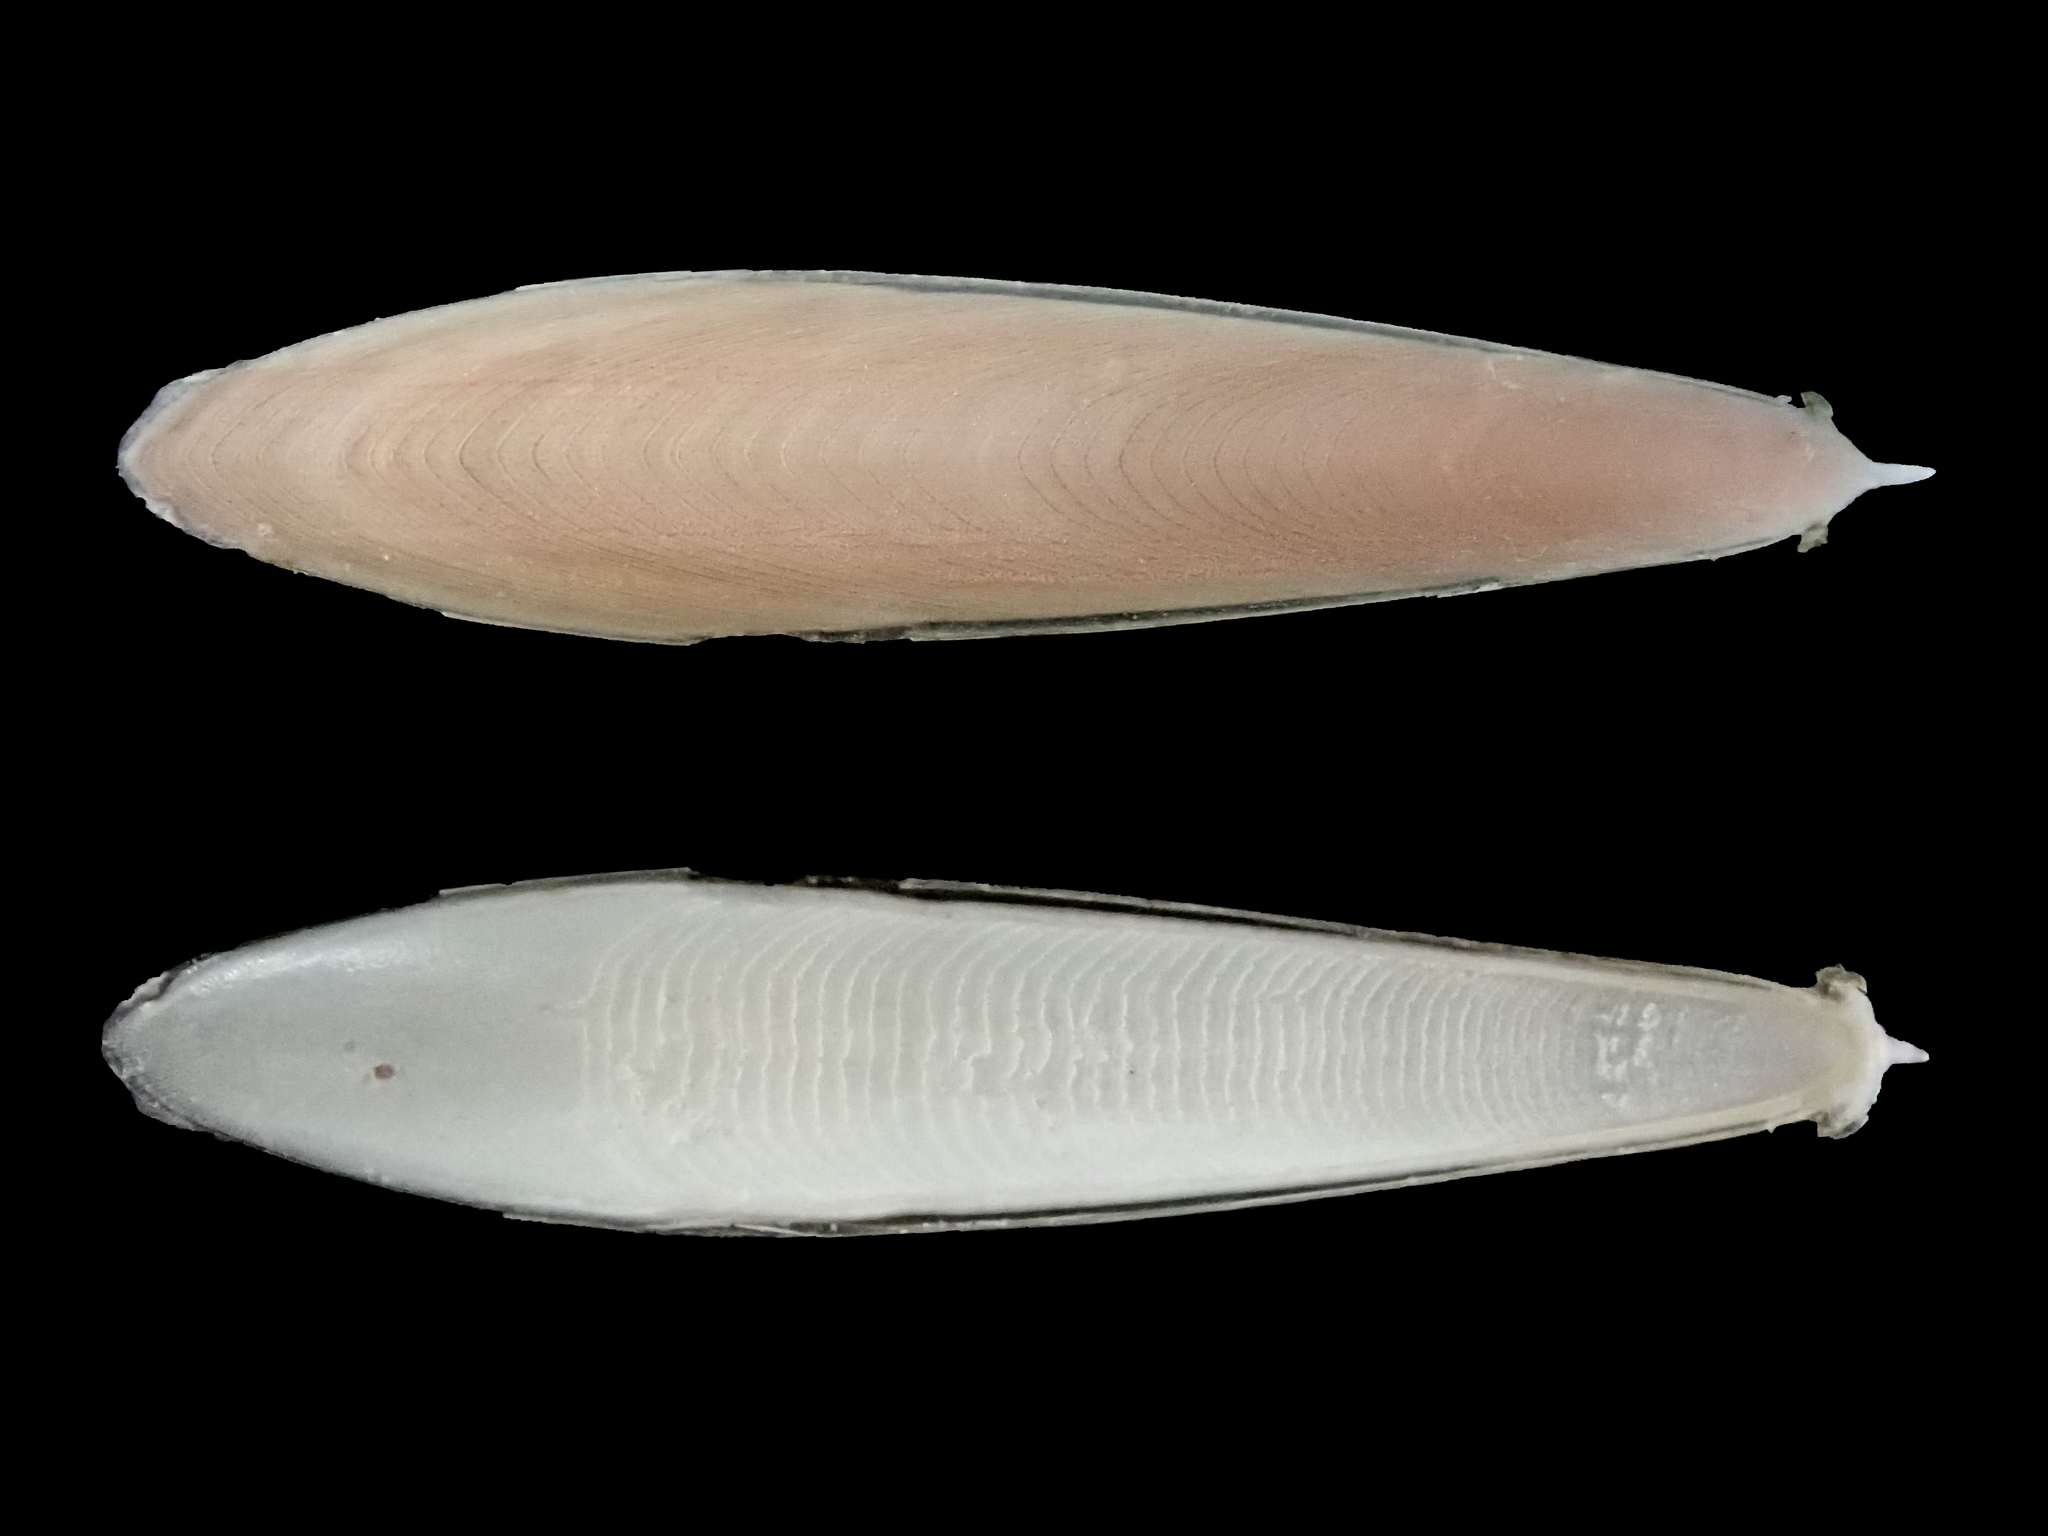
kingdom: Animalia
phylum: Mollusca
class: Cephalopoda
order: Sepiida
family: Sepiidae
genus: Doratosepion
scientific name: Doratosepion limatum
